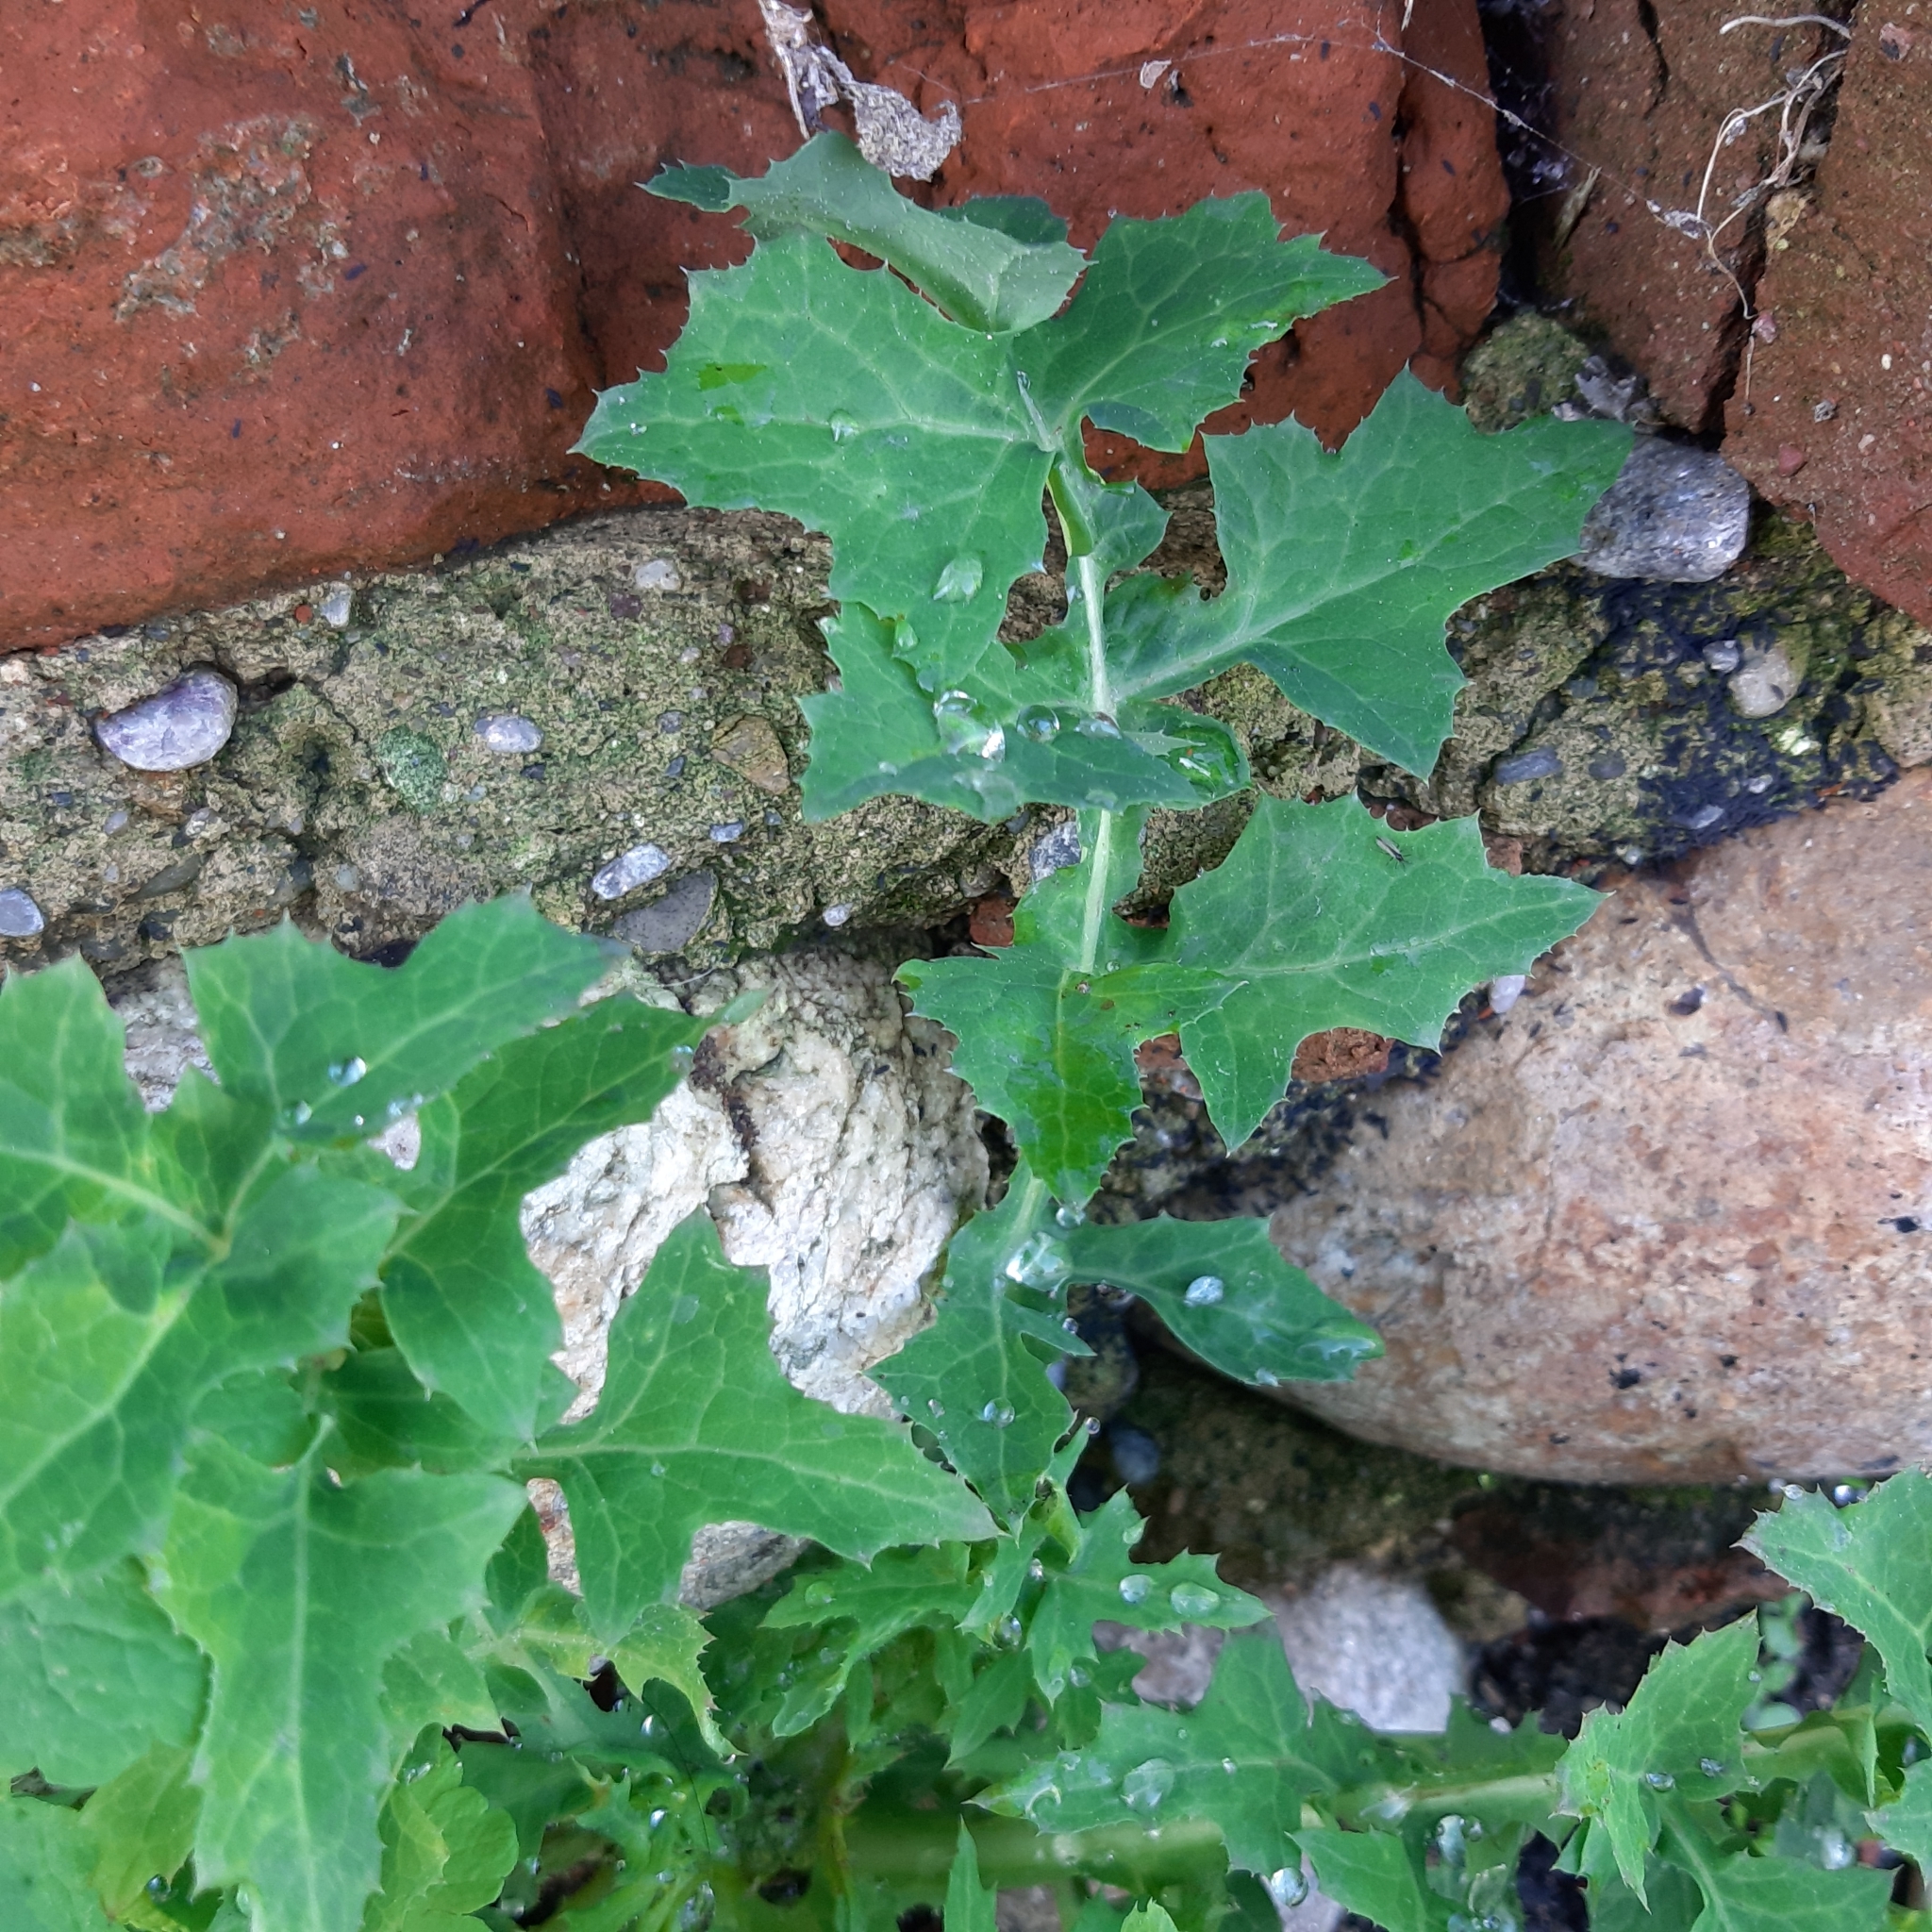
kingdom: Plantae
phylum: Tracheophyta
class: Magnoliopsida
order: Asterales
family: Asteraceae
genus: Sonchus
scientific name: Sonchus oleraceus
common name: Common sowthistle
